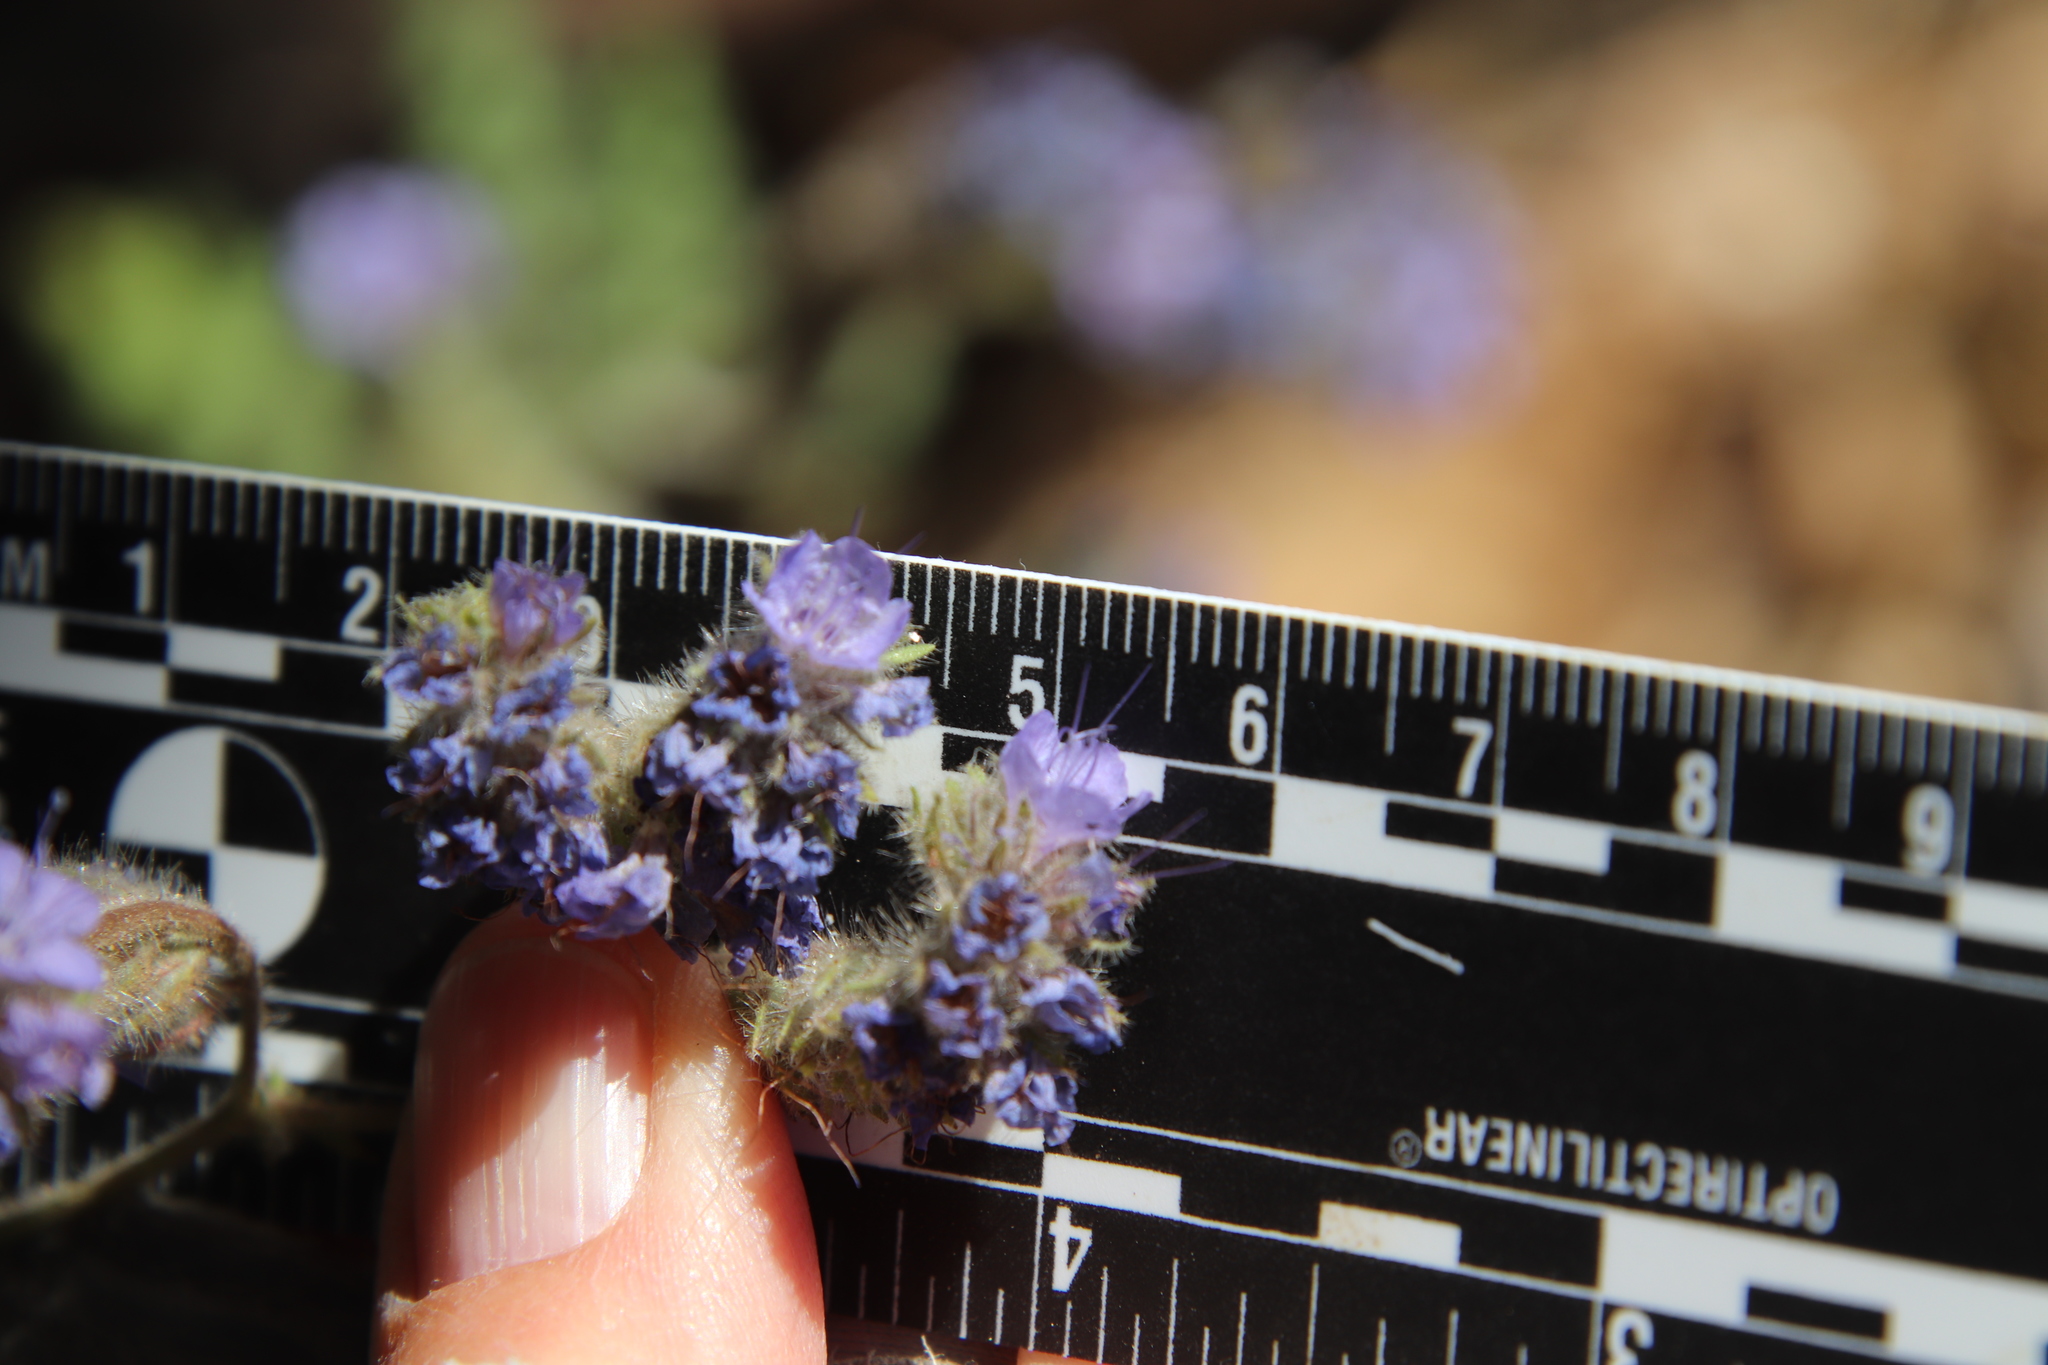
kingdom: Plantae
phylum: Tracheophyta
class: Magnoliopsida
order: Boraginales
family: Hydrophyllaceae
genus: Phacelia
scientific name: Phacelia distans
